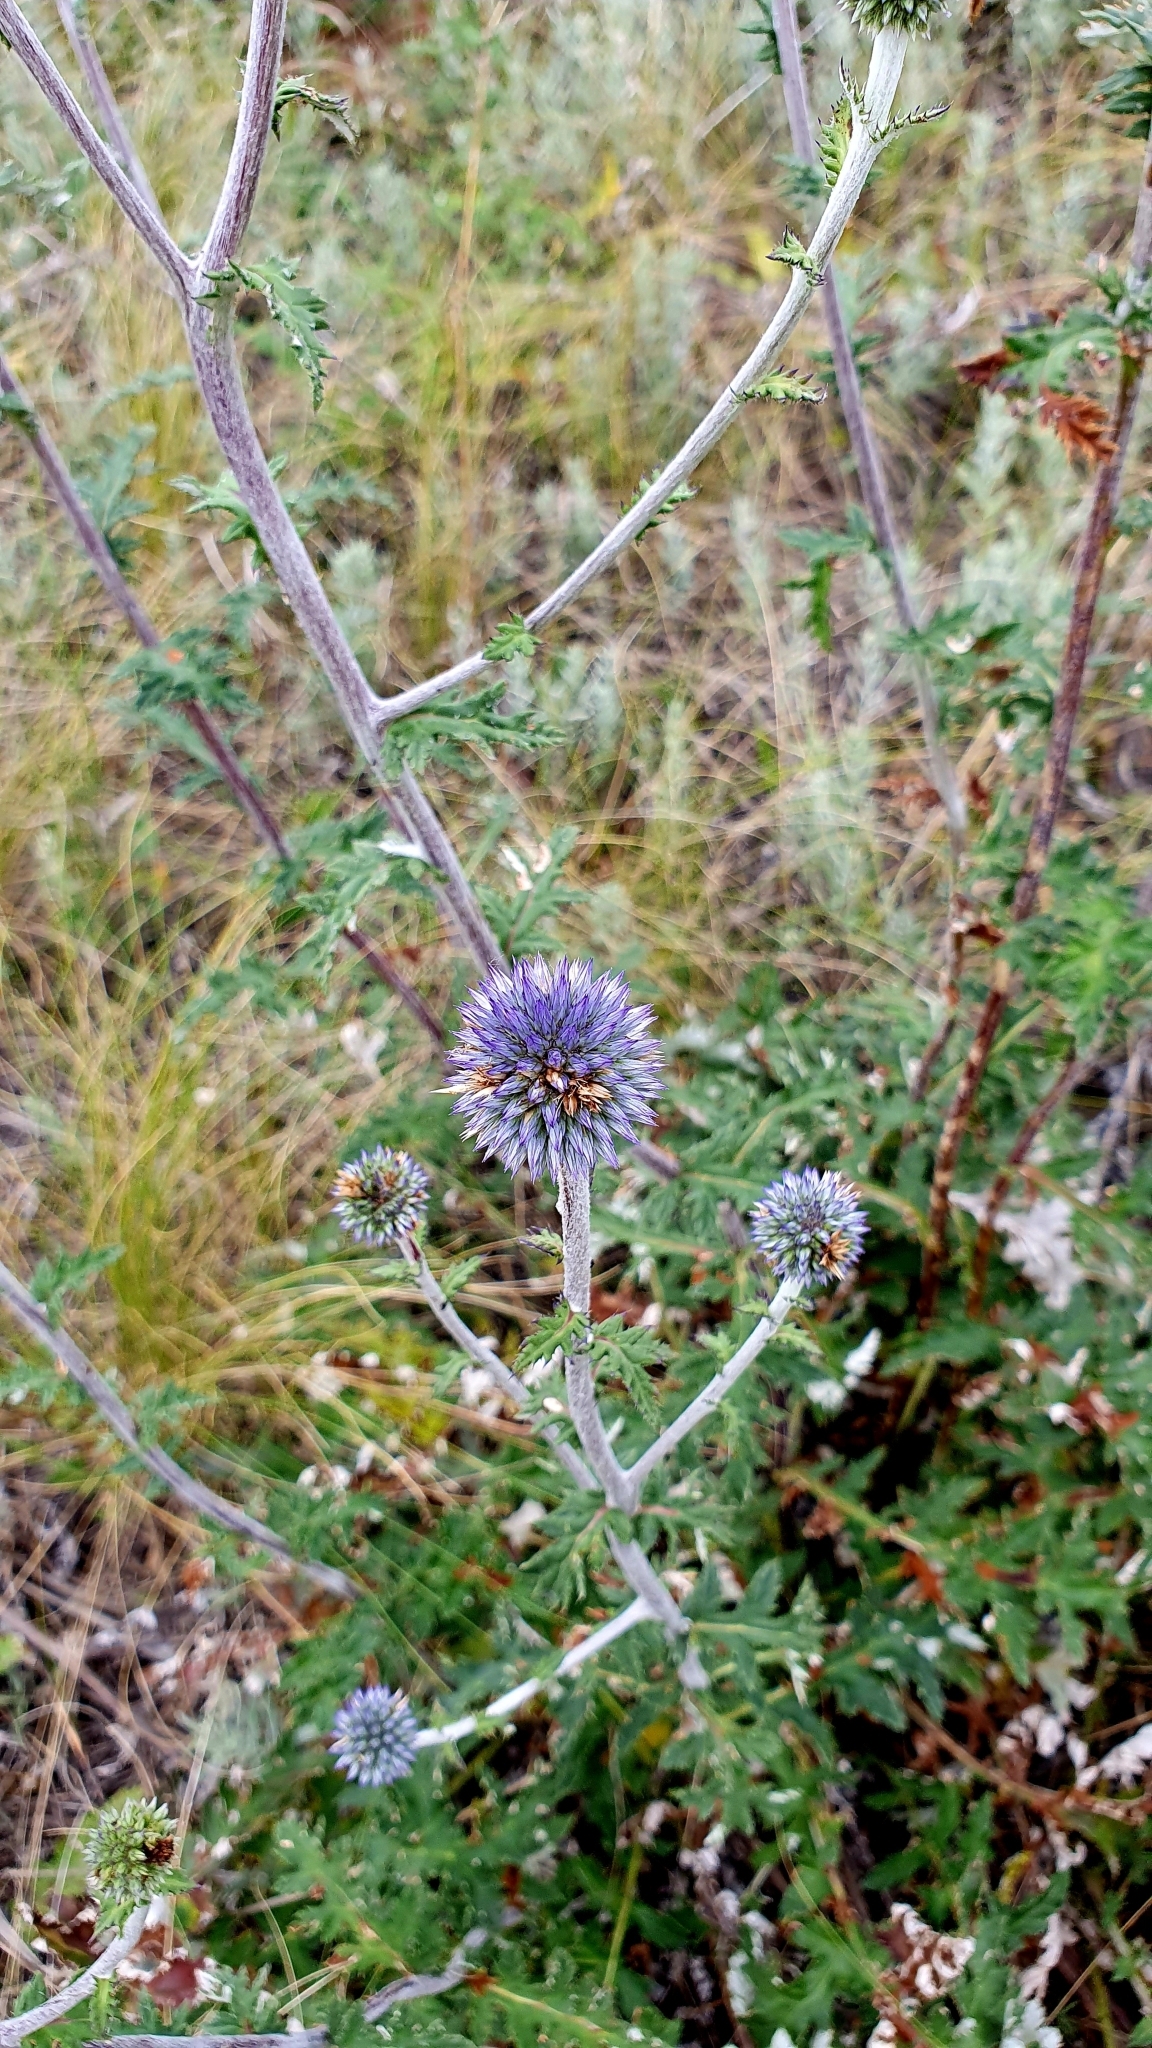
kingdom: Plantae
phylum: Tracheophyta
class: Magnoliopsida
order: Asterales
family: Asteraceae
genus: Echinops
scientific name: Echinops saksonovii
